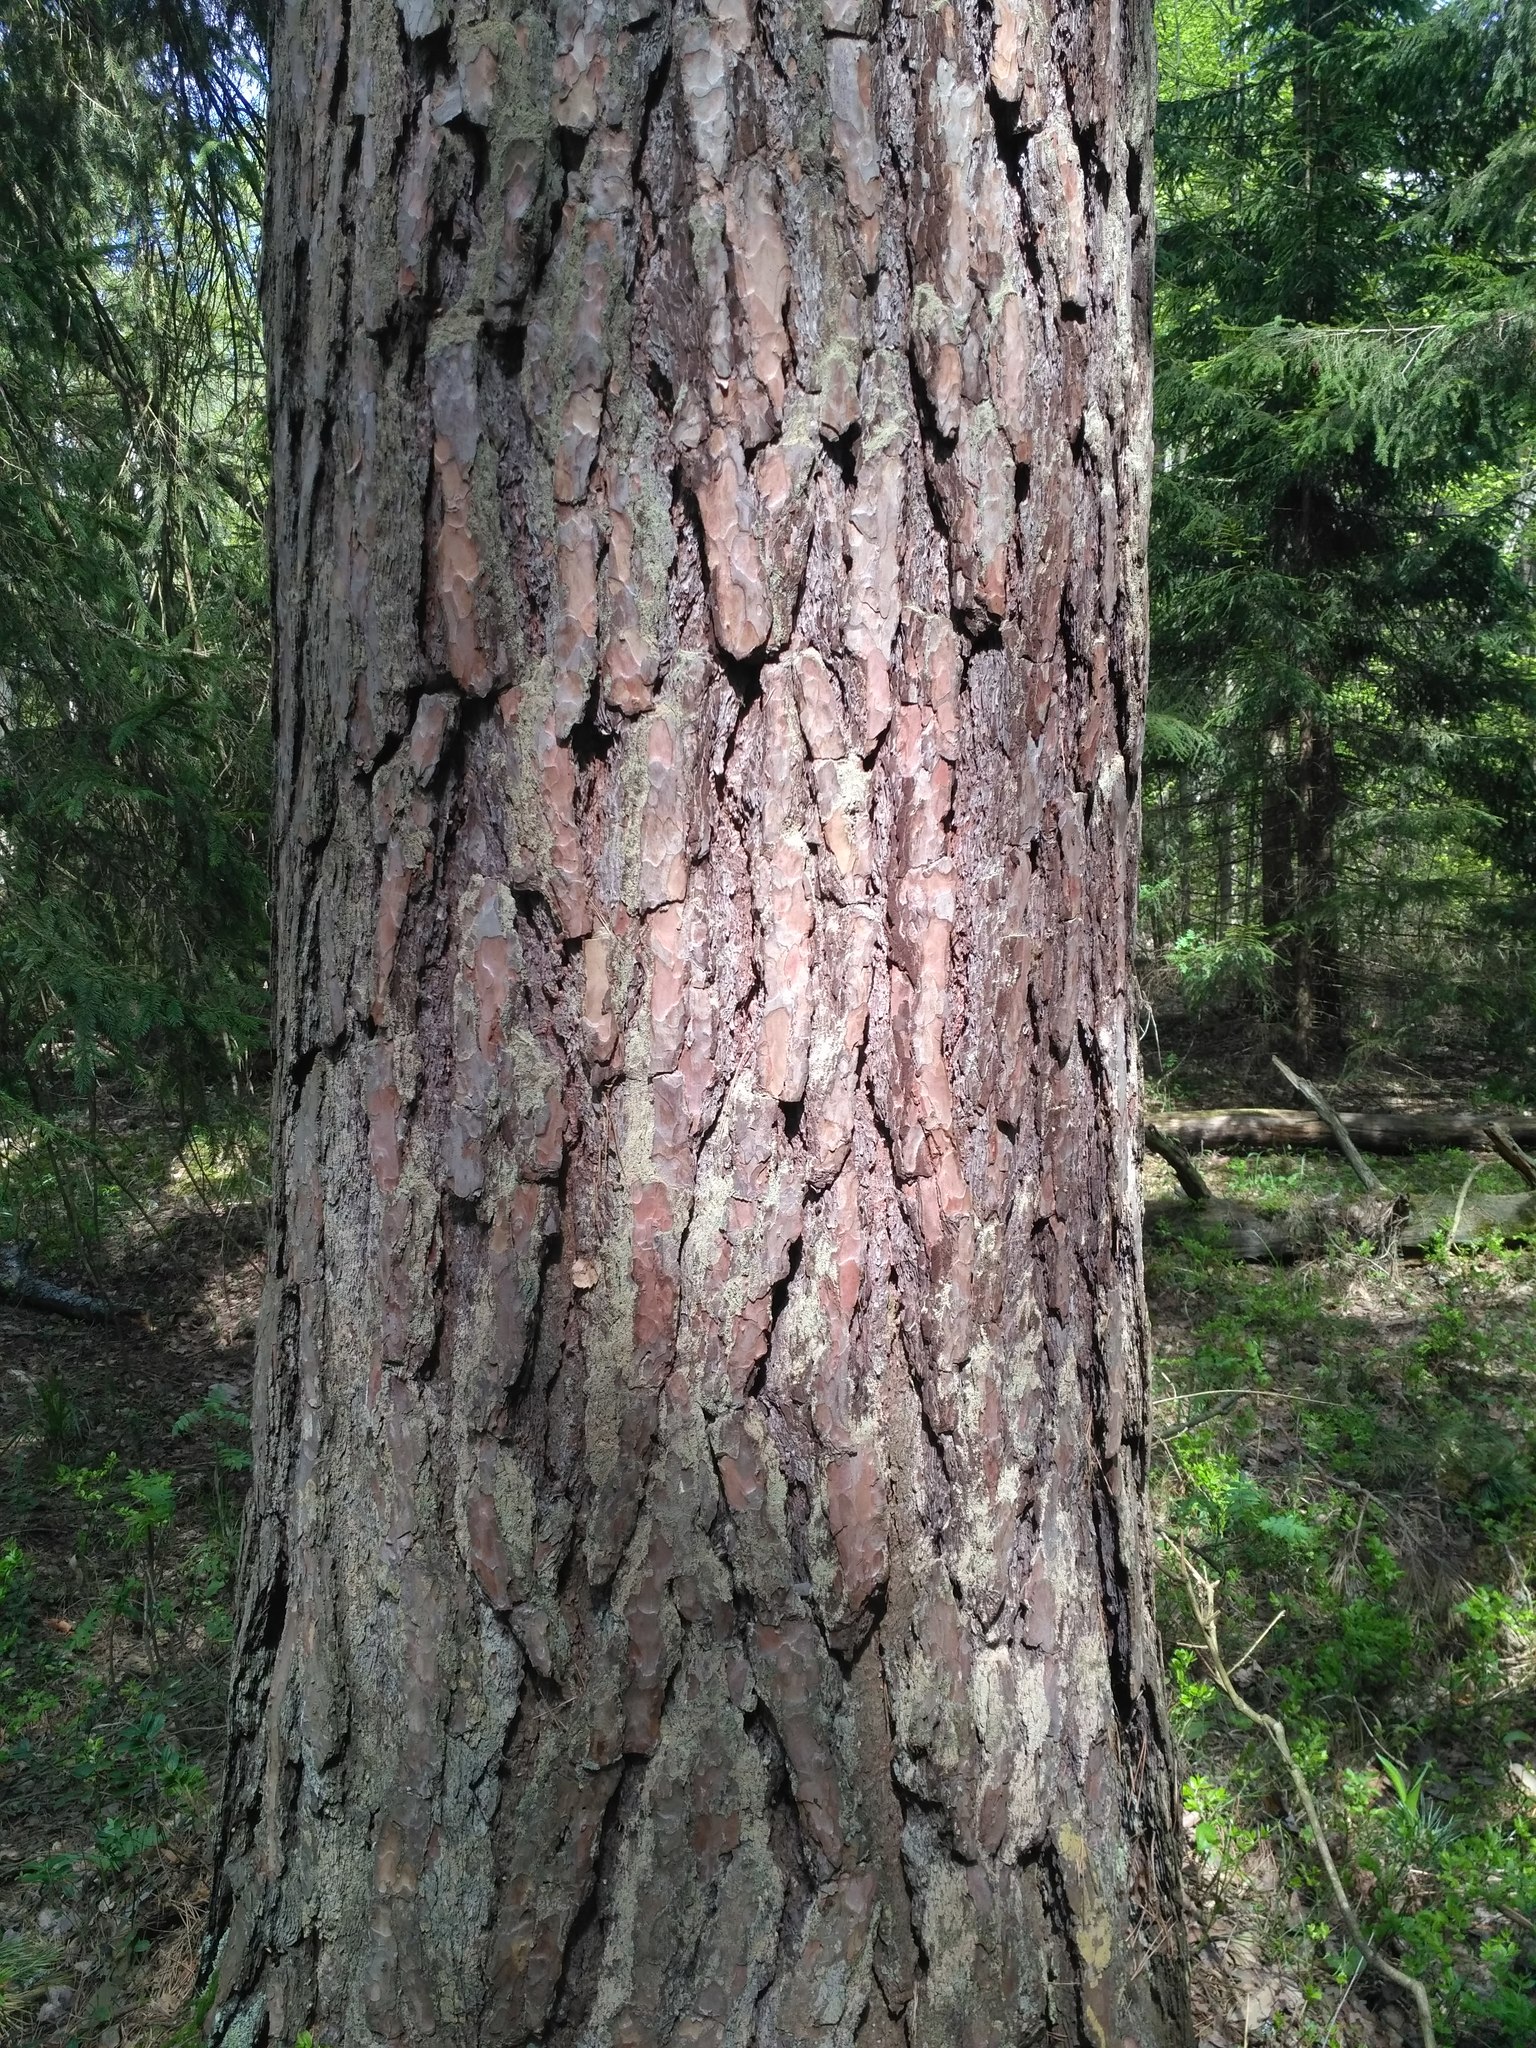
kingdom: Plantae
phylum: Tracheophyta
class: Pinopsida
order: Pinales
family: Pinaceae
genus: Pinus
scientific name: Pinus sylvestris
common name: Scots pine
